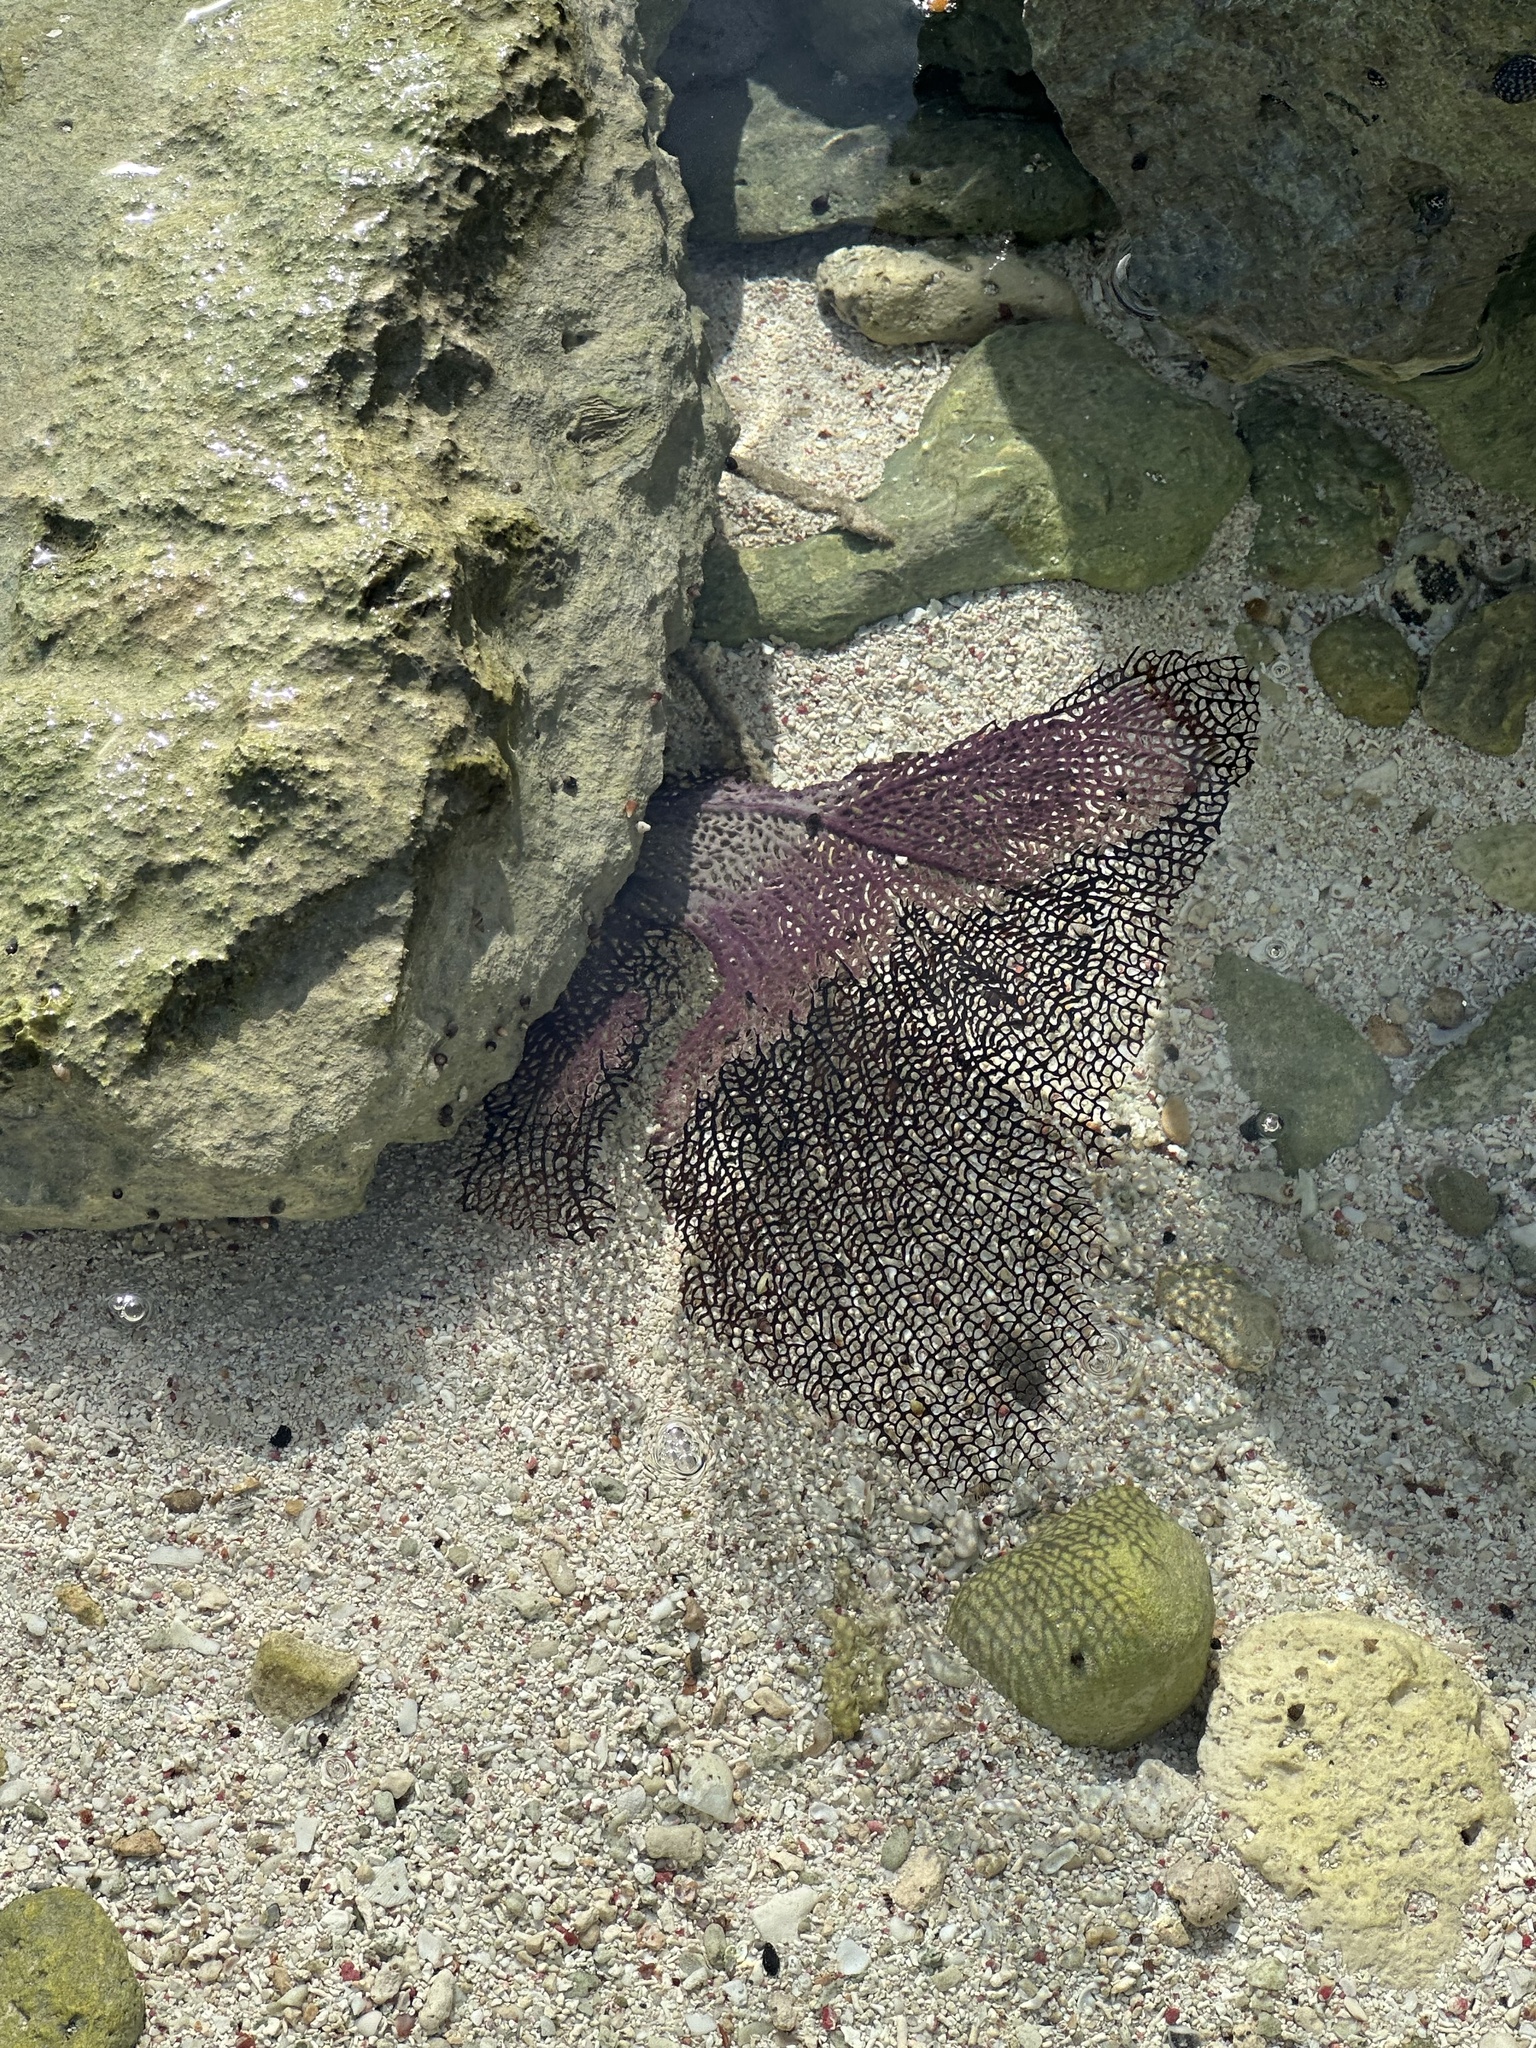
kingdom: Animalia
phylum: Cnidaria
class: Anthozoa
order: Malacalcyonacea
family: Gorgoniidae
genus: Gorgonia
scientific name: Gorgonia ventalina
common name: Common sea fan
